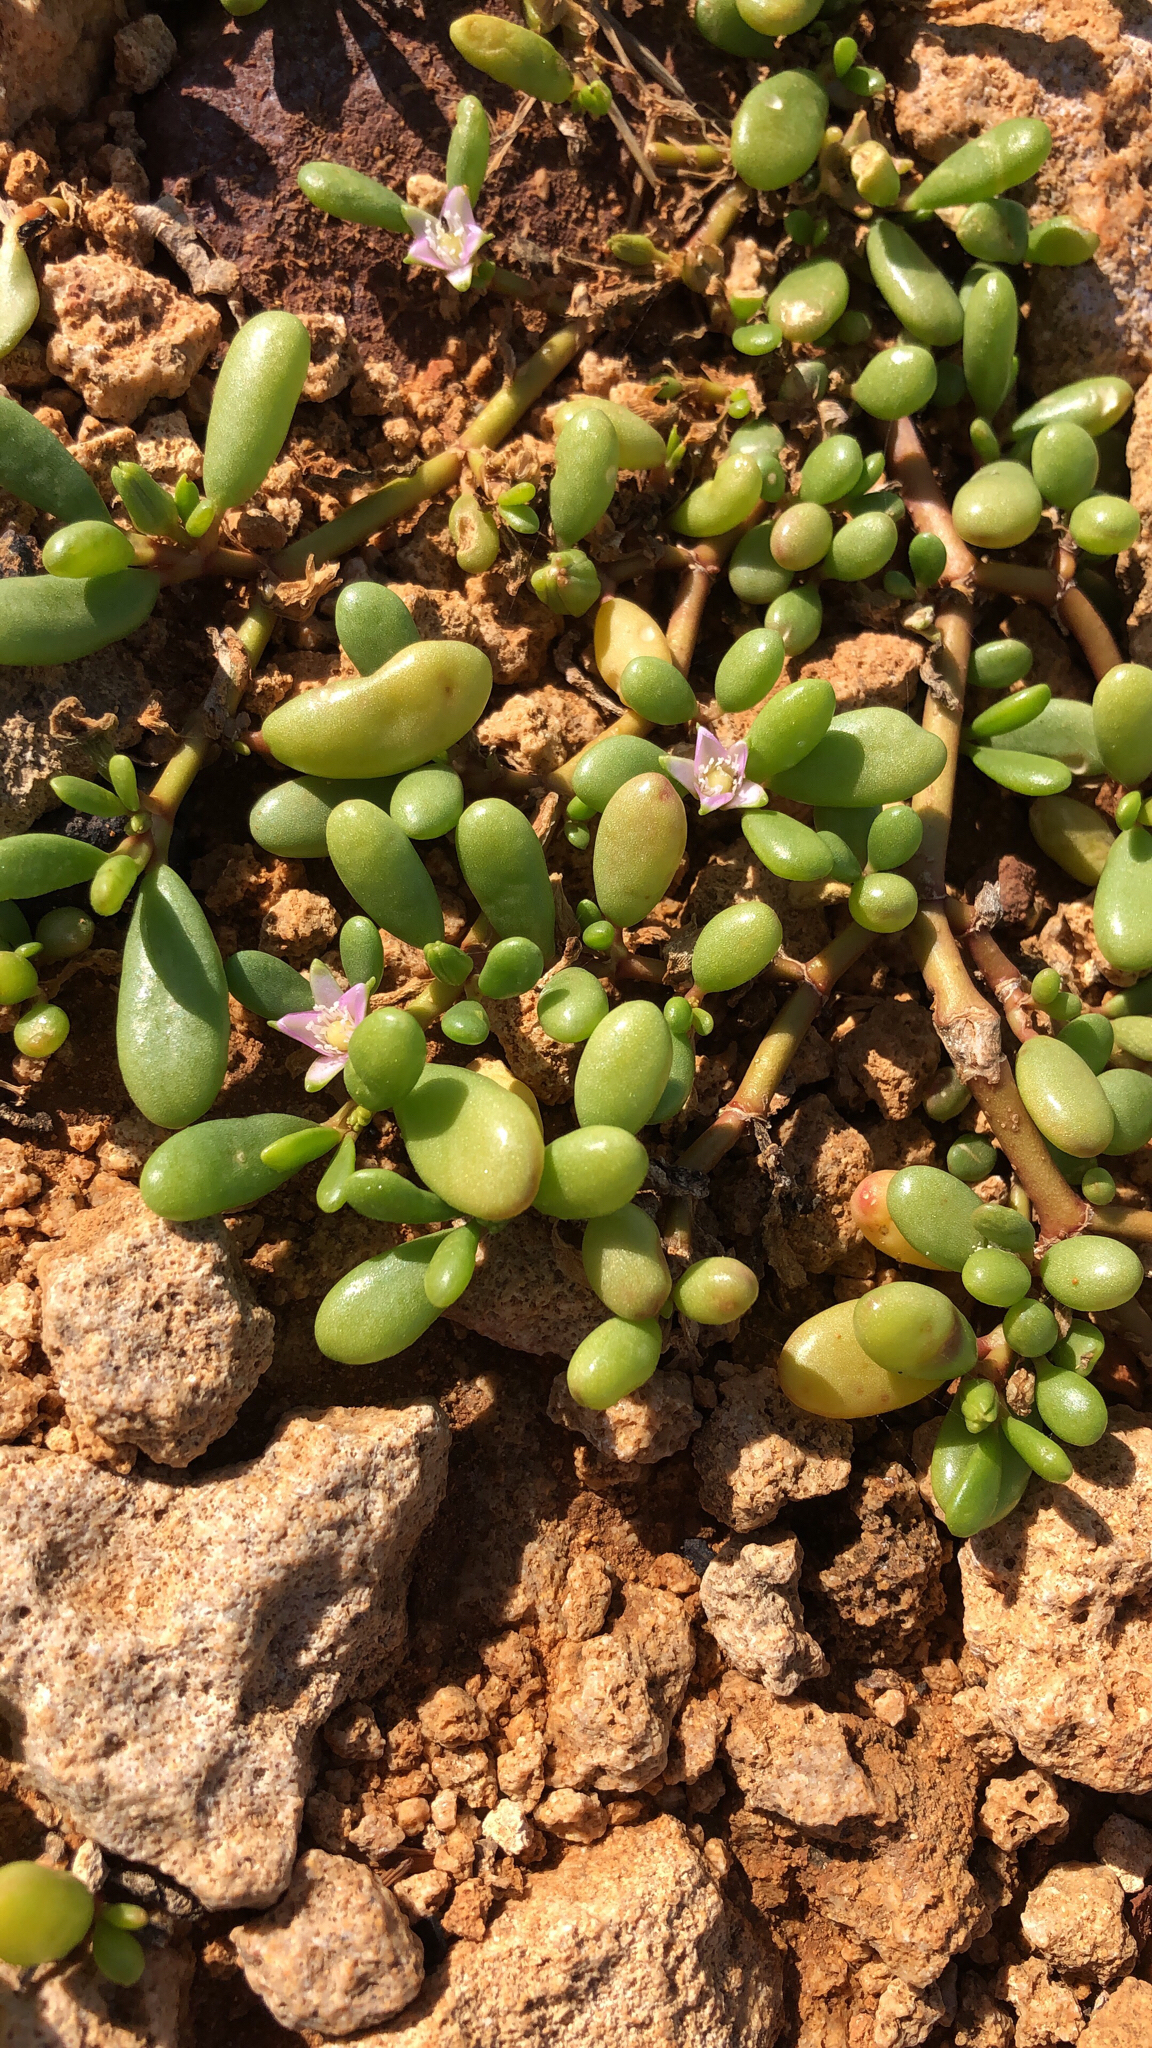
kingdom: Plantae
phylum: Tracheophyta
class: Magnoliopsida
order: Caryophyllales
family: Aizoaceae
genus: Sesuvium
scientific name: Sesuvium portulacastrum
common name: Sea-purslane
